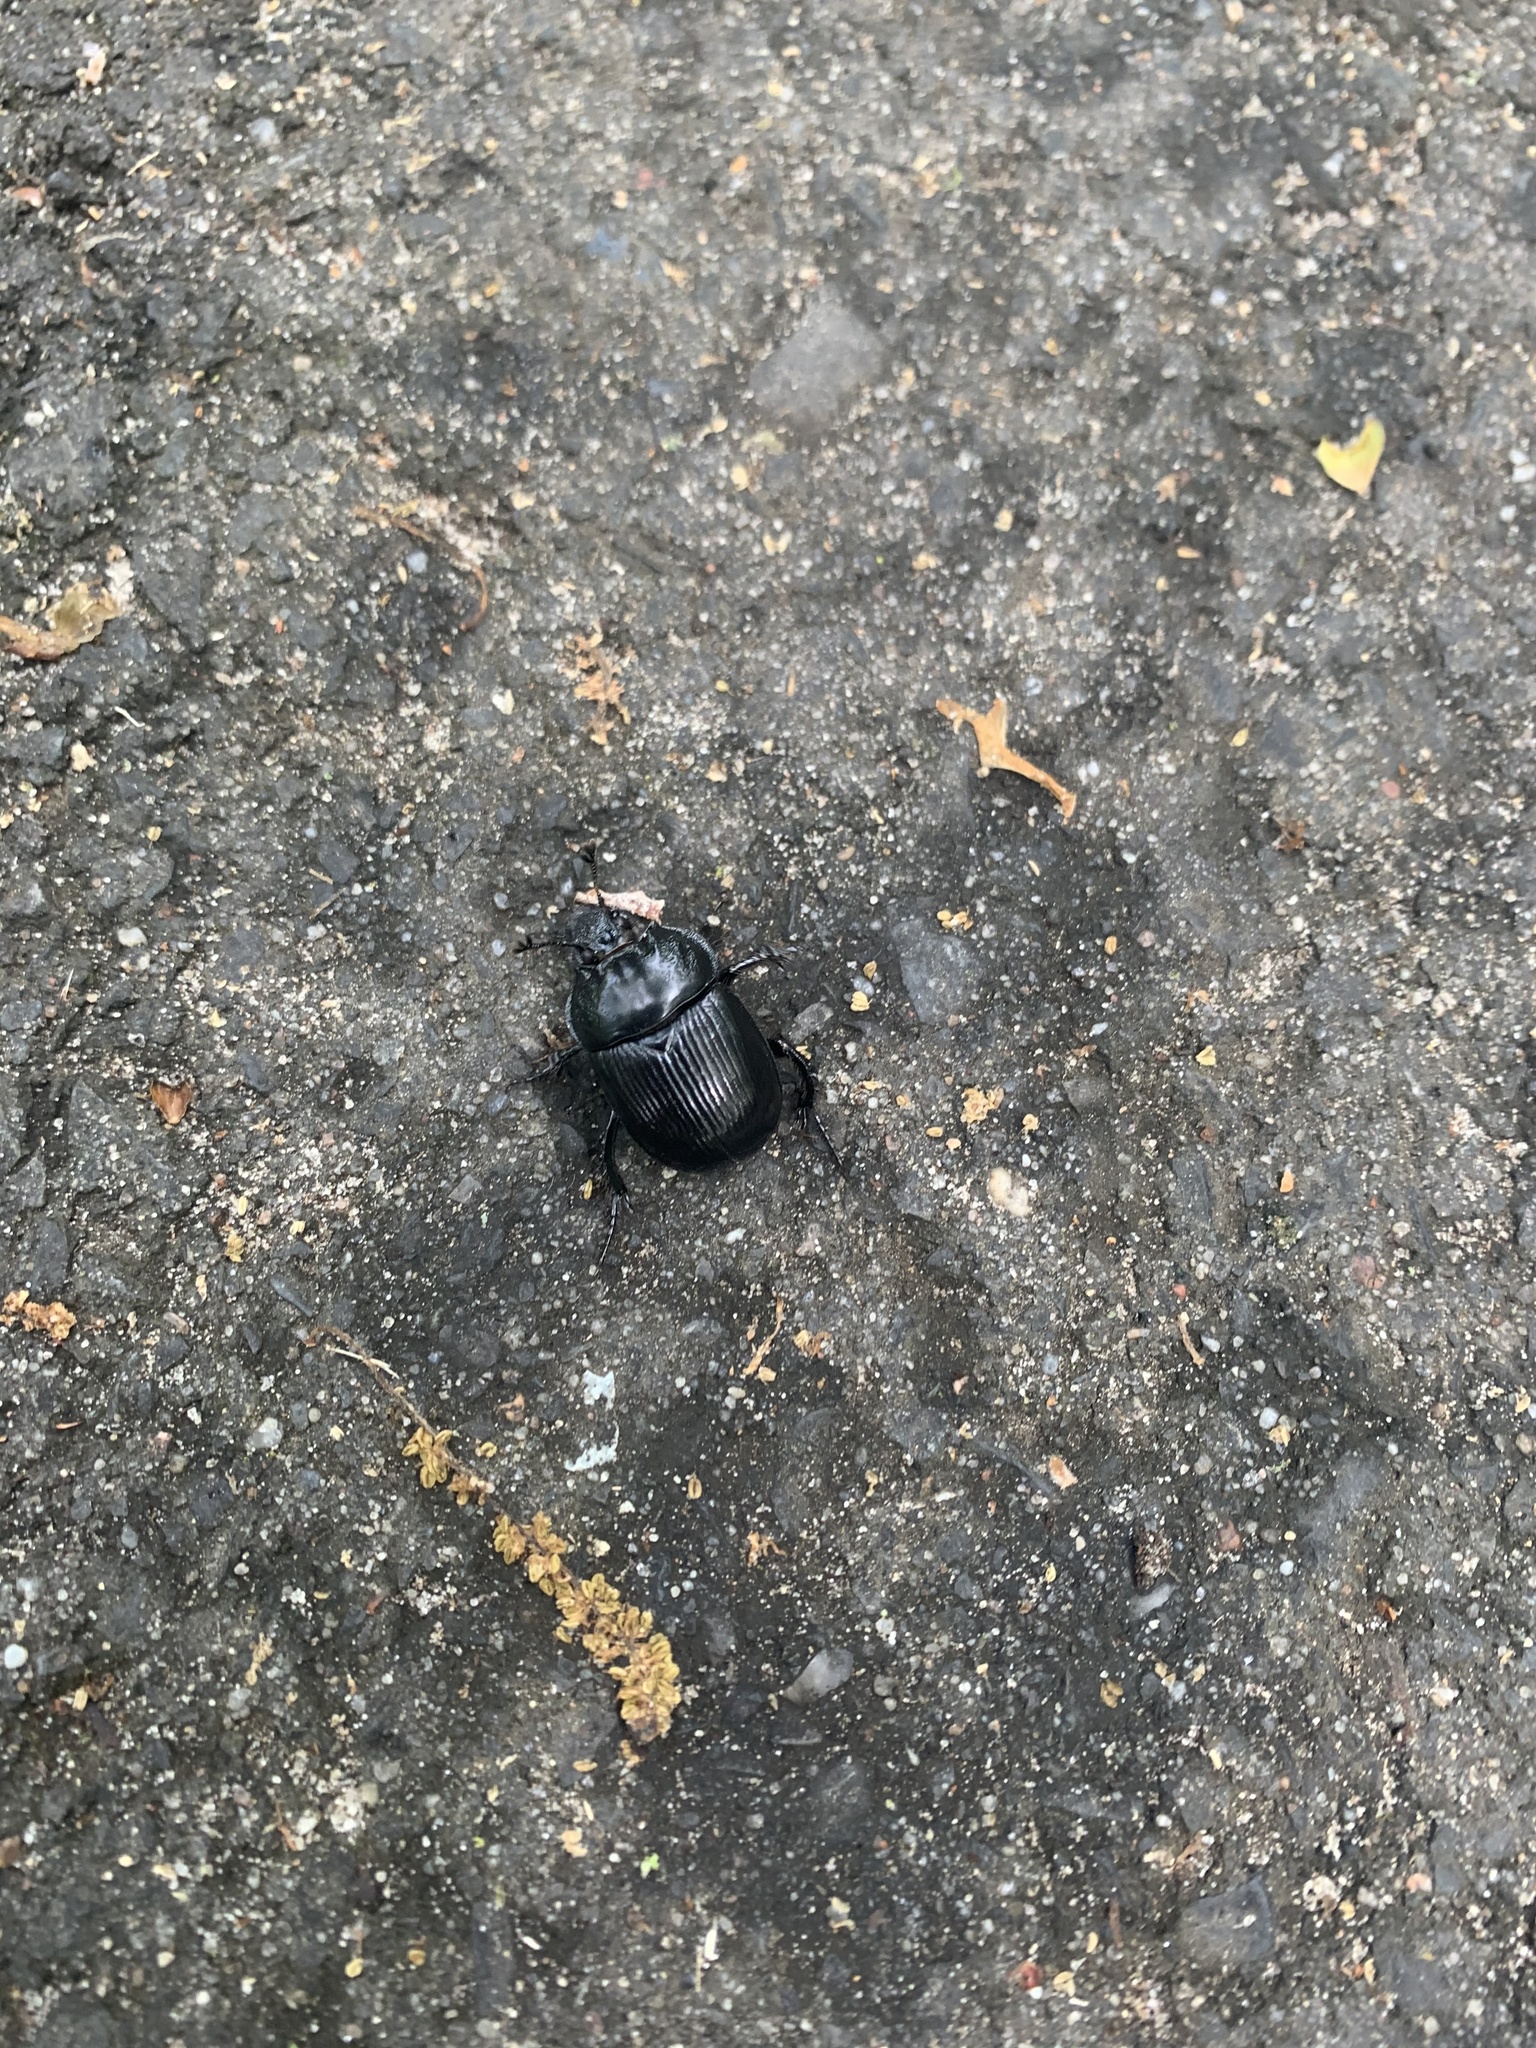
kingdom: Animalia
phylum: Arthropoda
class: Insecta
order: Coleoptera
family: Geotrupidae
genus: Typhaeus
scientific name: Typhaeus typhoeus
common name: Minotaur beetle
